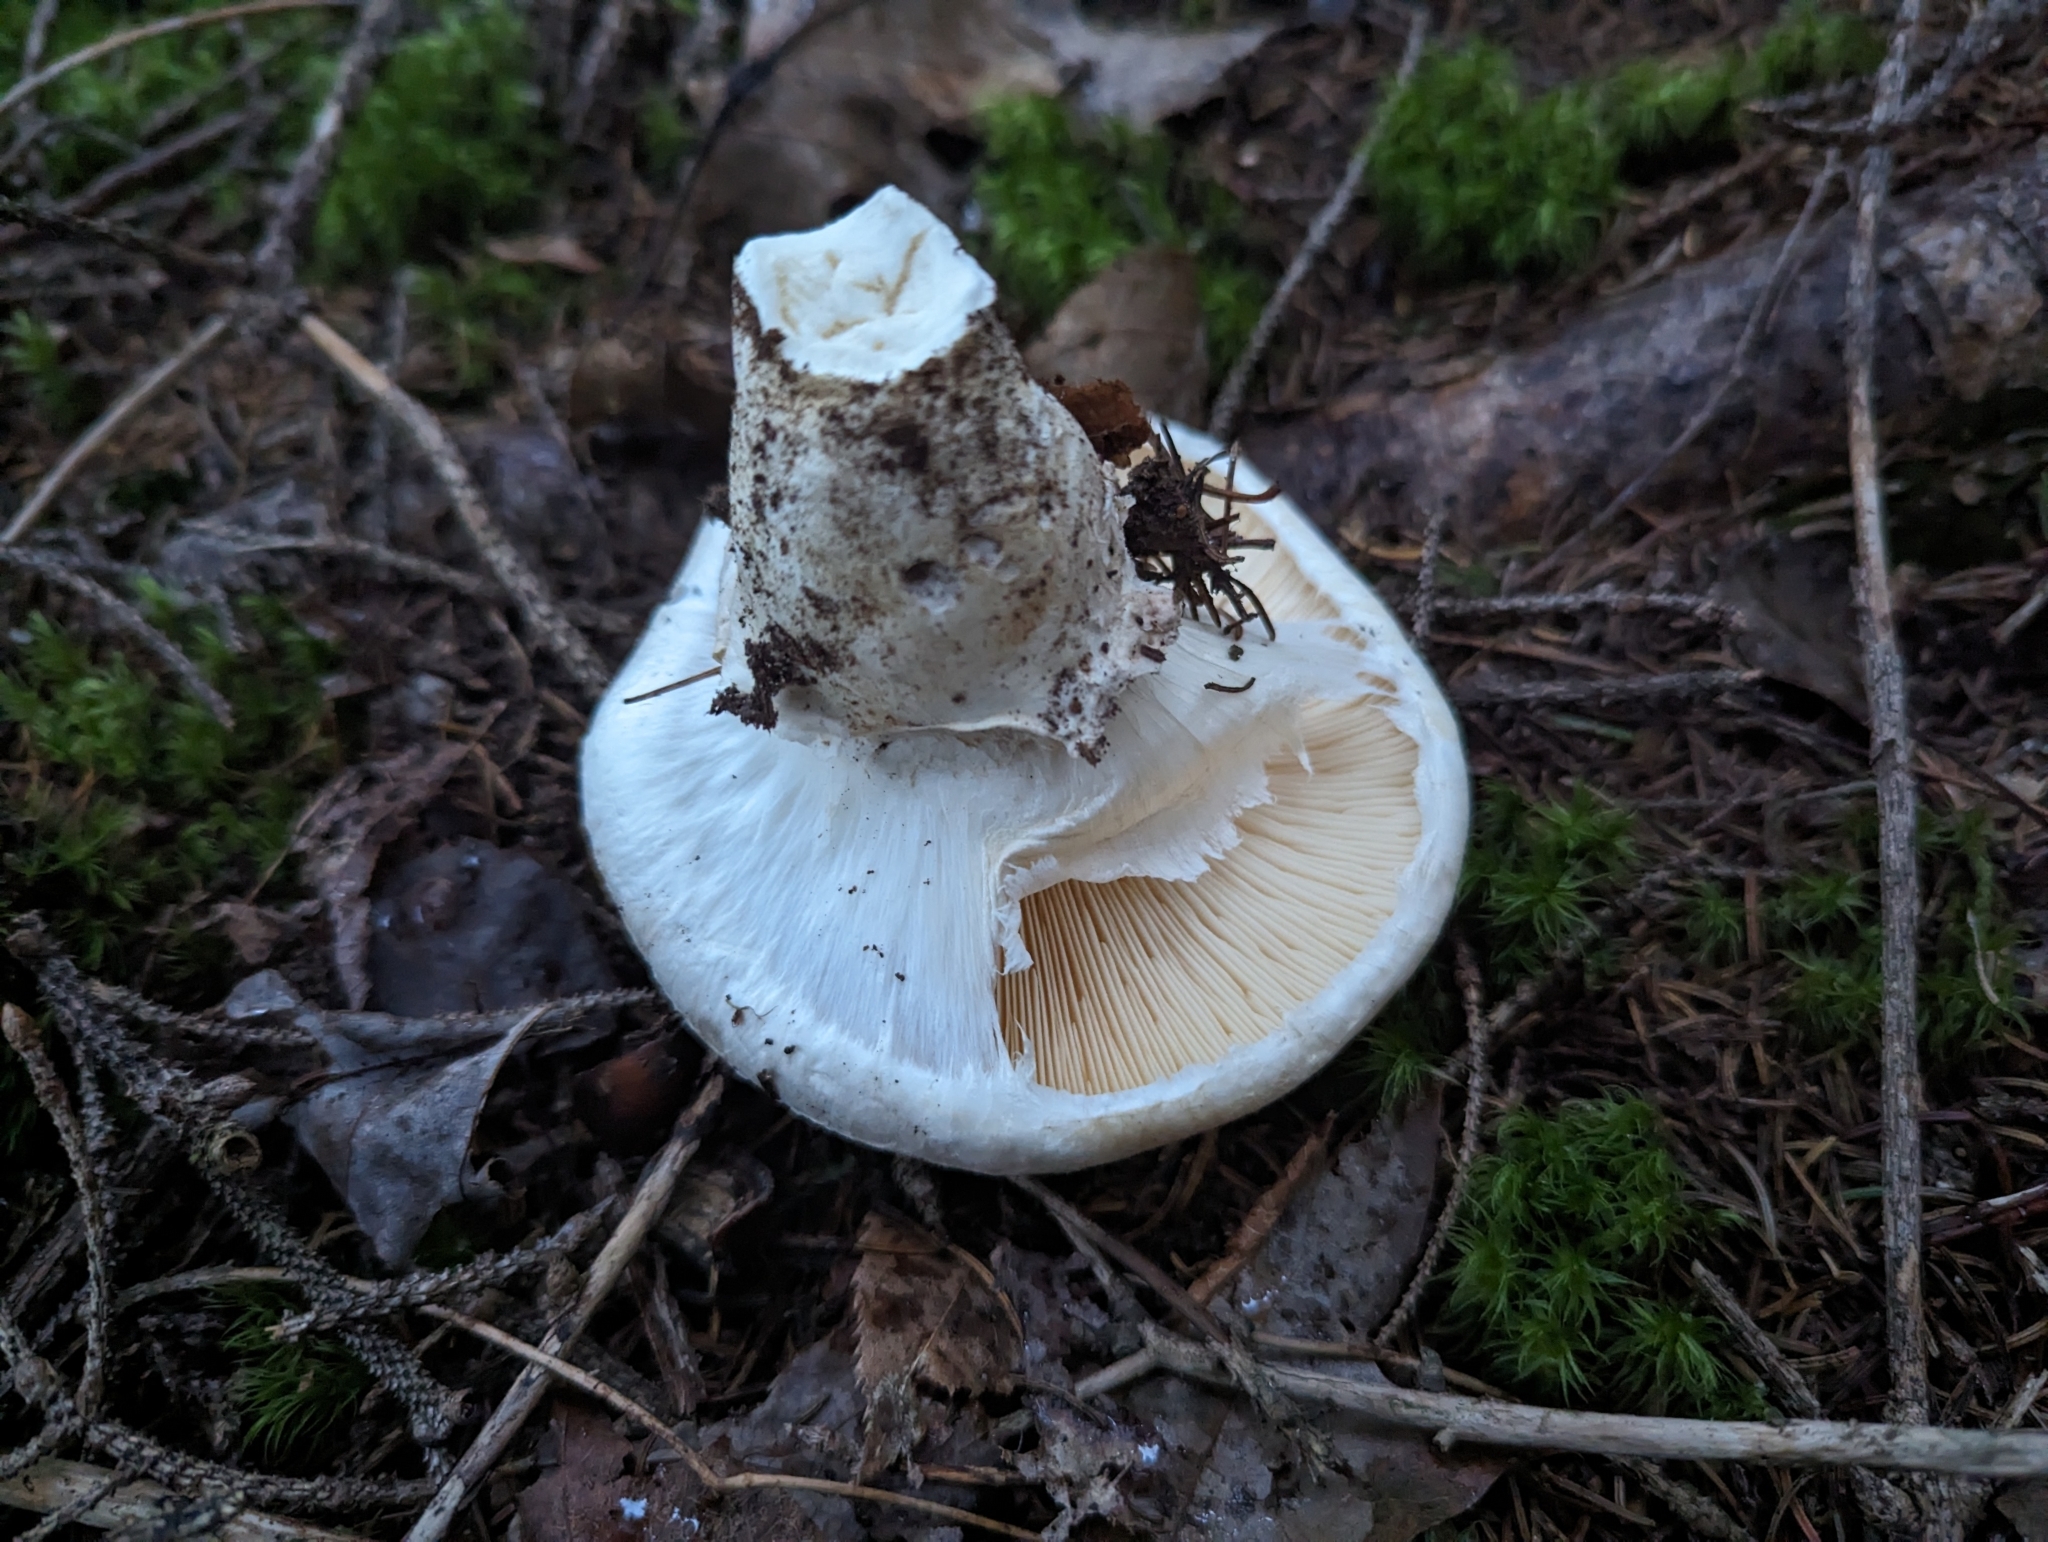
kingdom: Fungi
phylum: Basidiomycota
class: Agaricomycetes
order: Agaricales
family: Tricholomataceae
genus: Tricholoma
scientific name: Tricholoma magnivelare
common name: American matsutake
